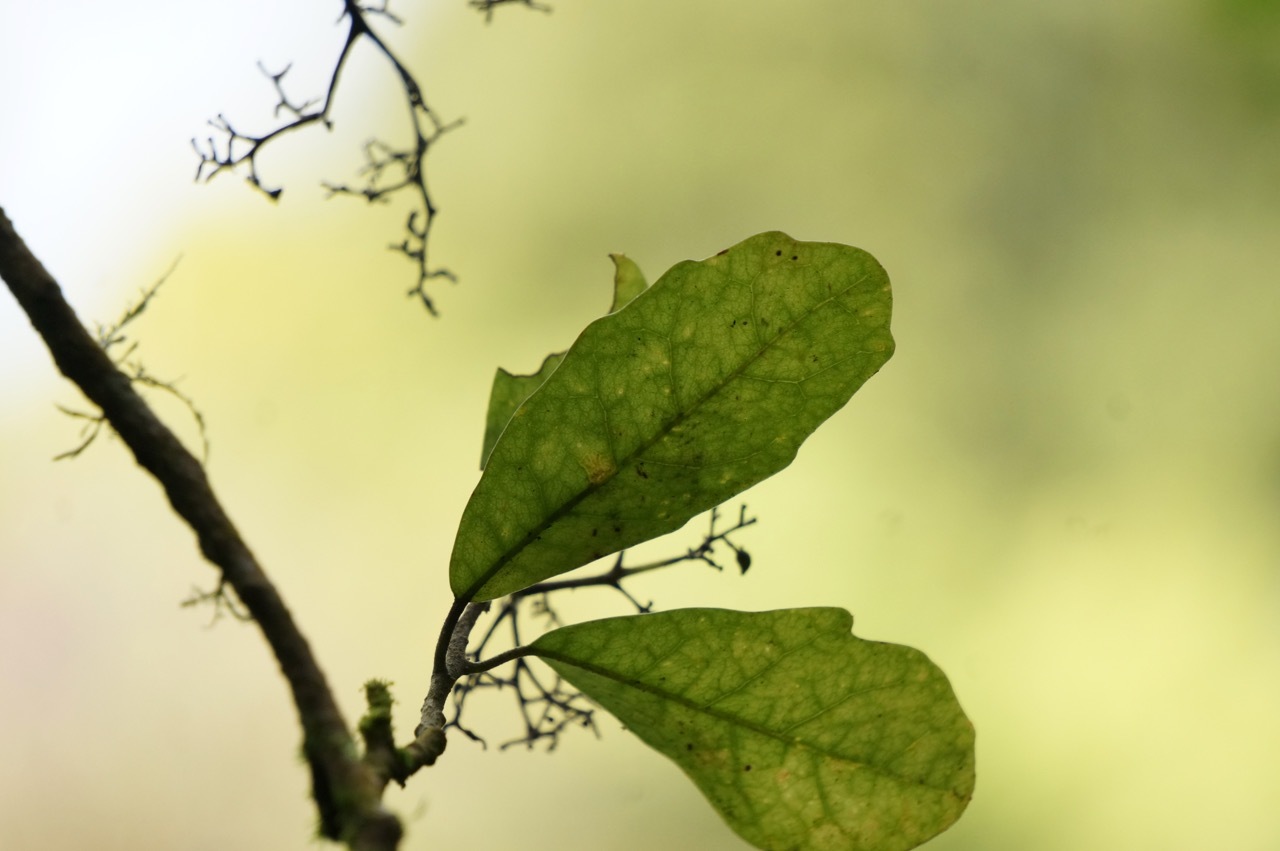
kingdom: Plantae
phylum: Tracheophyta
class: Magnoliopsida
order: Apiales
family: Pennantiaceae
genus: Pennantia
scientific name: Pennantia corymbosa
